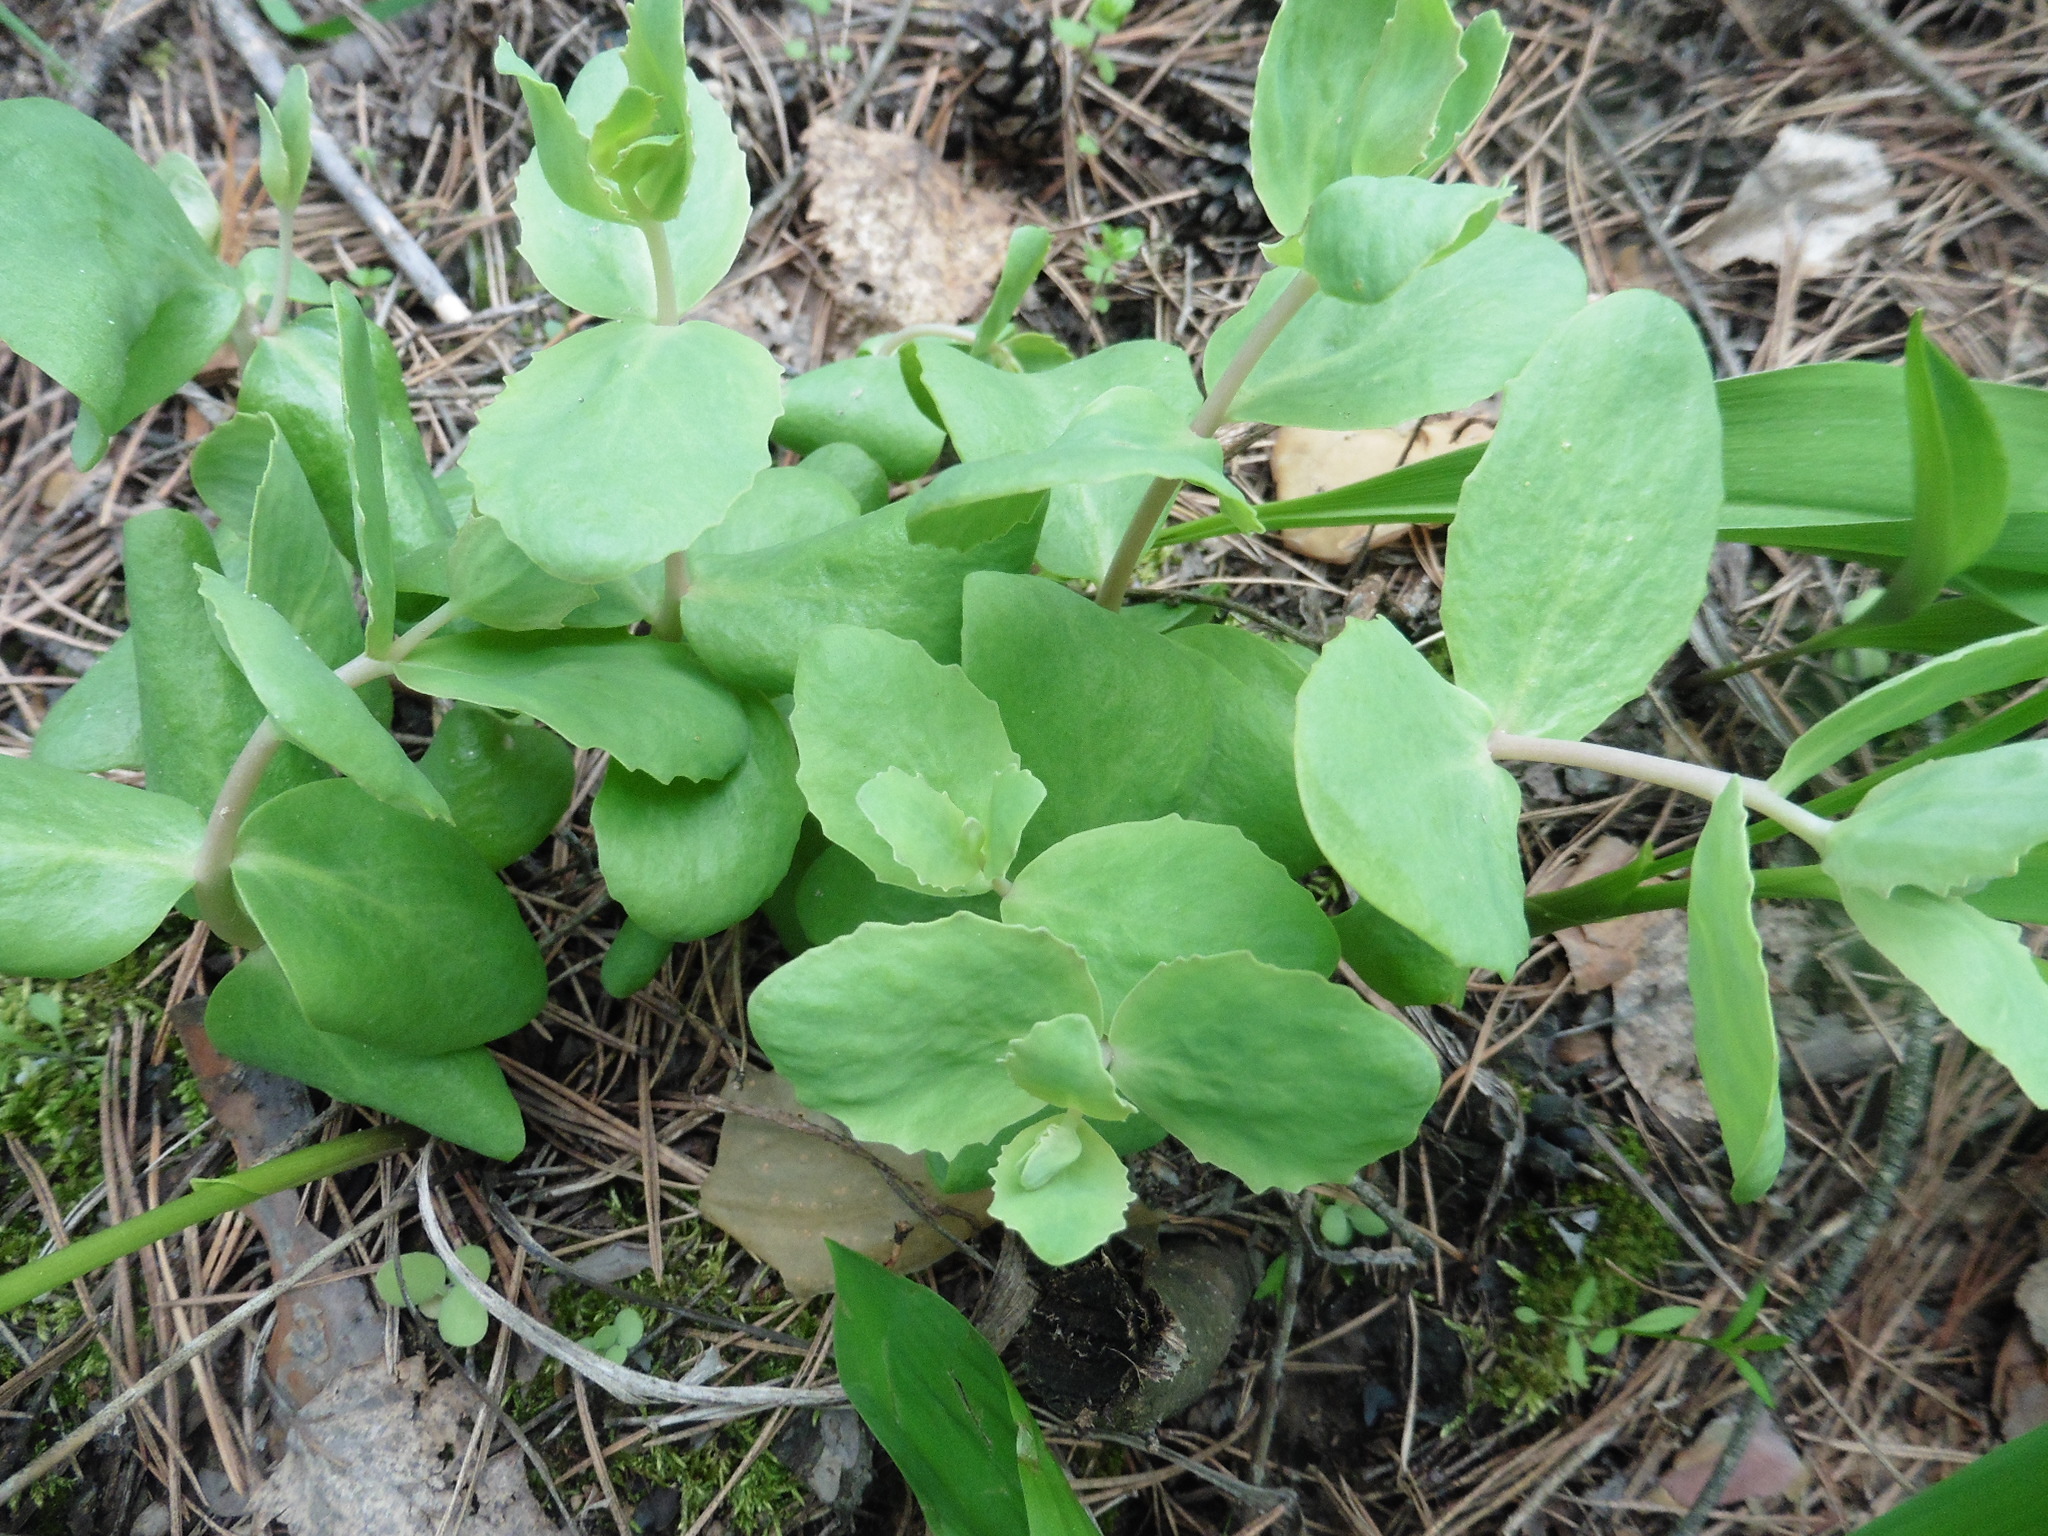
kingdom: Plantae
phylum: Tracheophyta
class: Magnoliopsida
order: Saxifragales
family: Crassulaceae
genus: Hylotelephium
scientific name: Hylotelephium maximum
